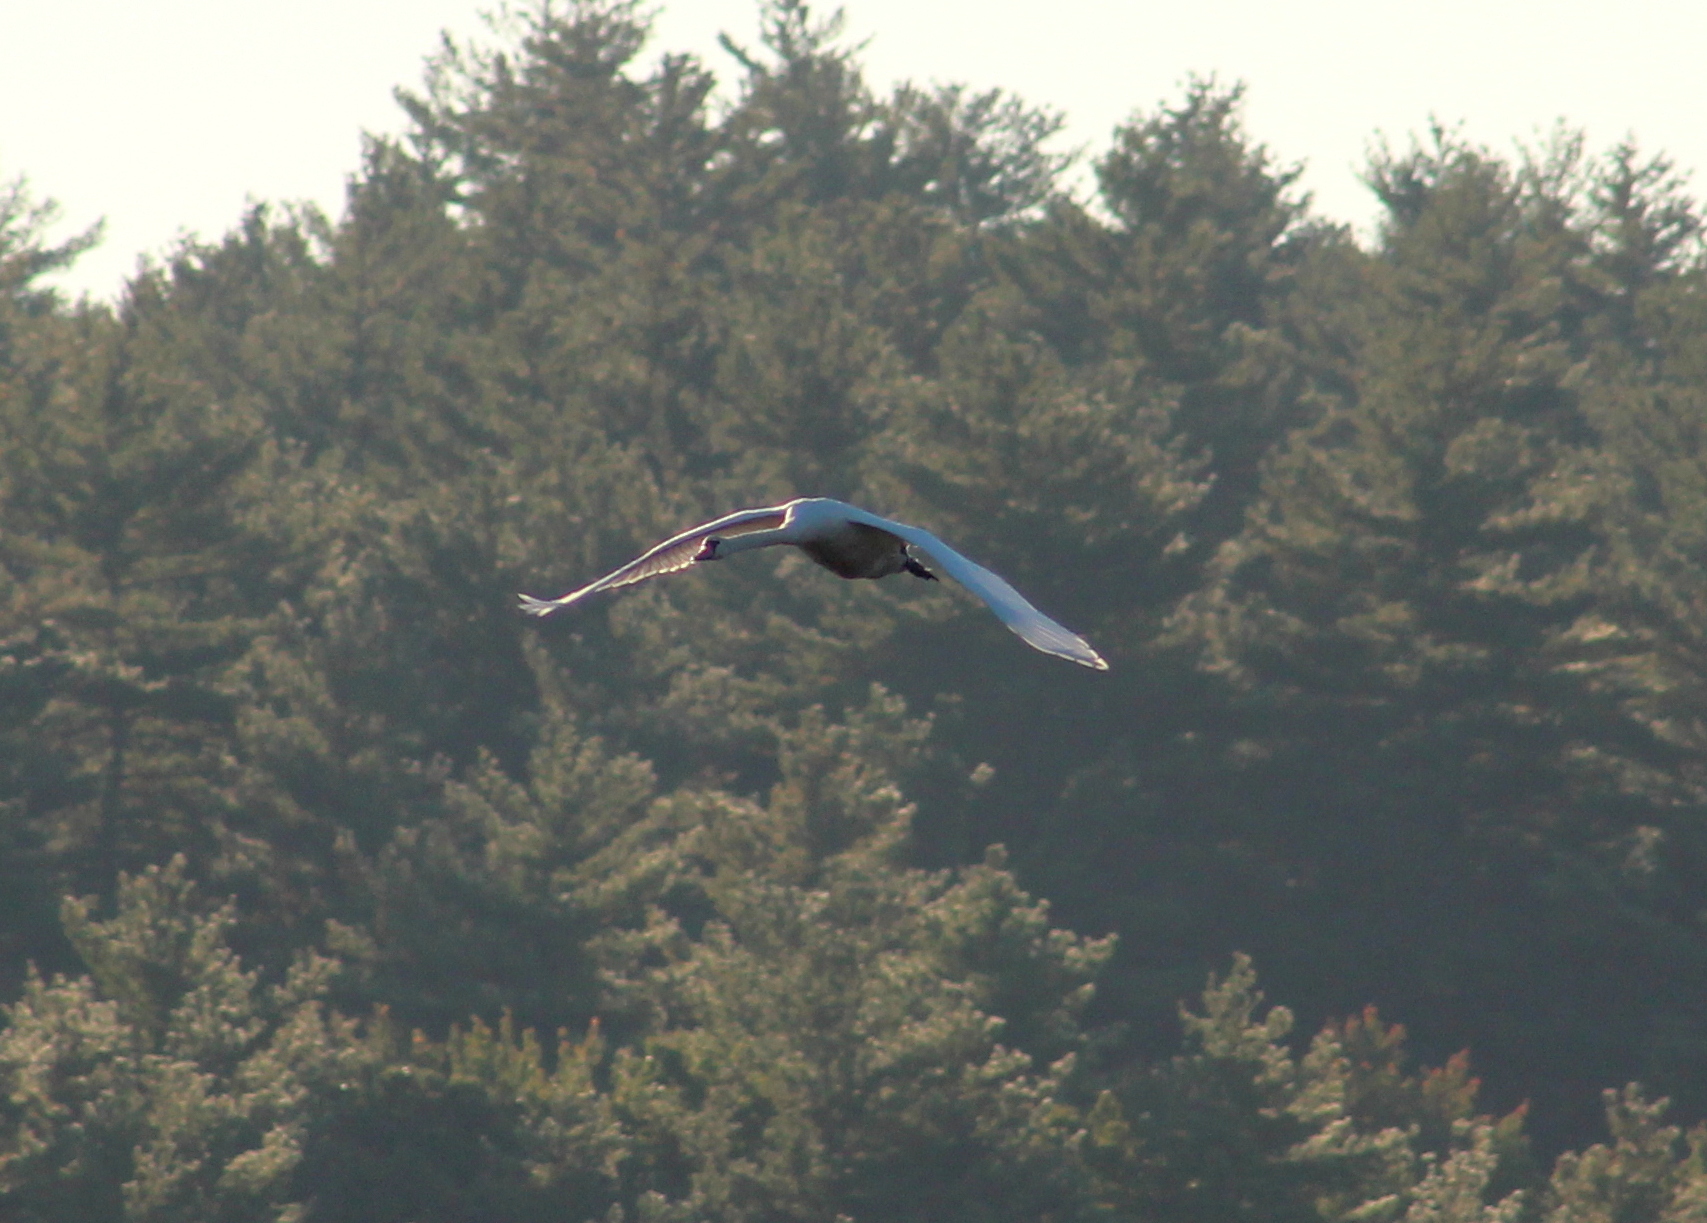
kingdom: Animalia
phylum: Chordata
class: Aves
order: Anseriformes
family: Anatidae
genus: Cygnus
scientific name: Cygnus olor
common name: Mute swan
